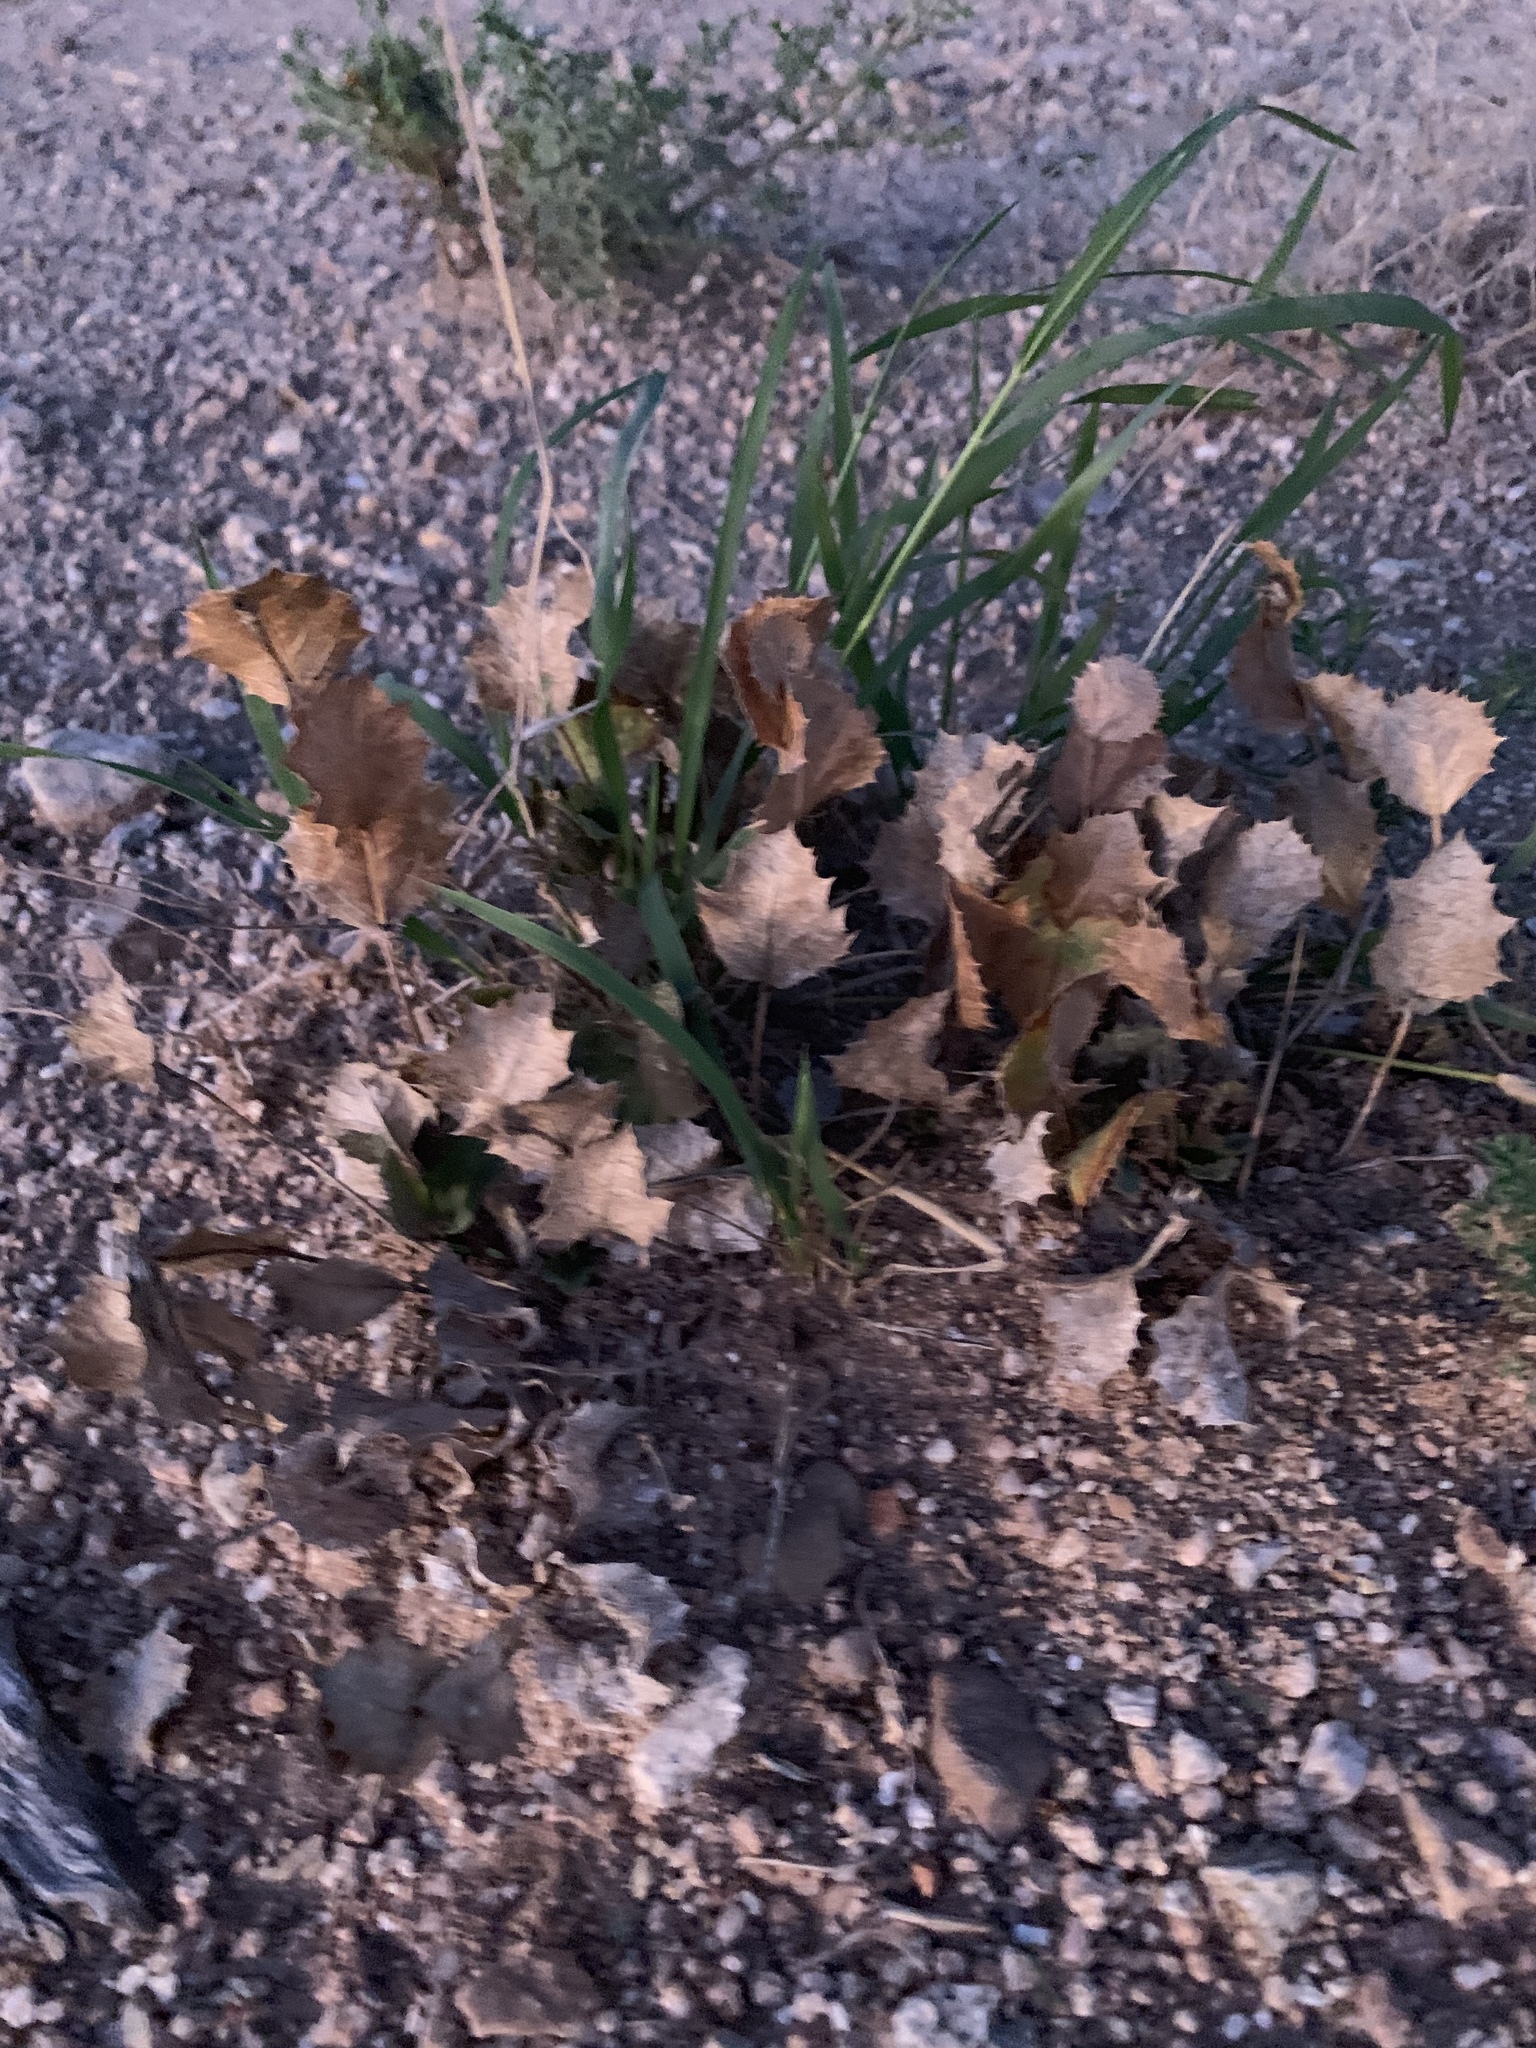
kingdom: Plantae
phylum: Tracheophyta
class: Magnoliopsida
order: Asterales
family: Asteraceae
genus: Acourtia
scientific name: Acourtia nana
